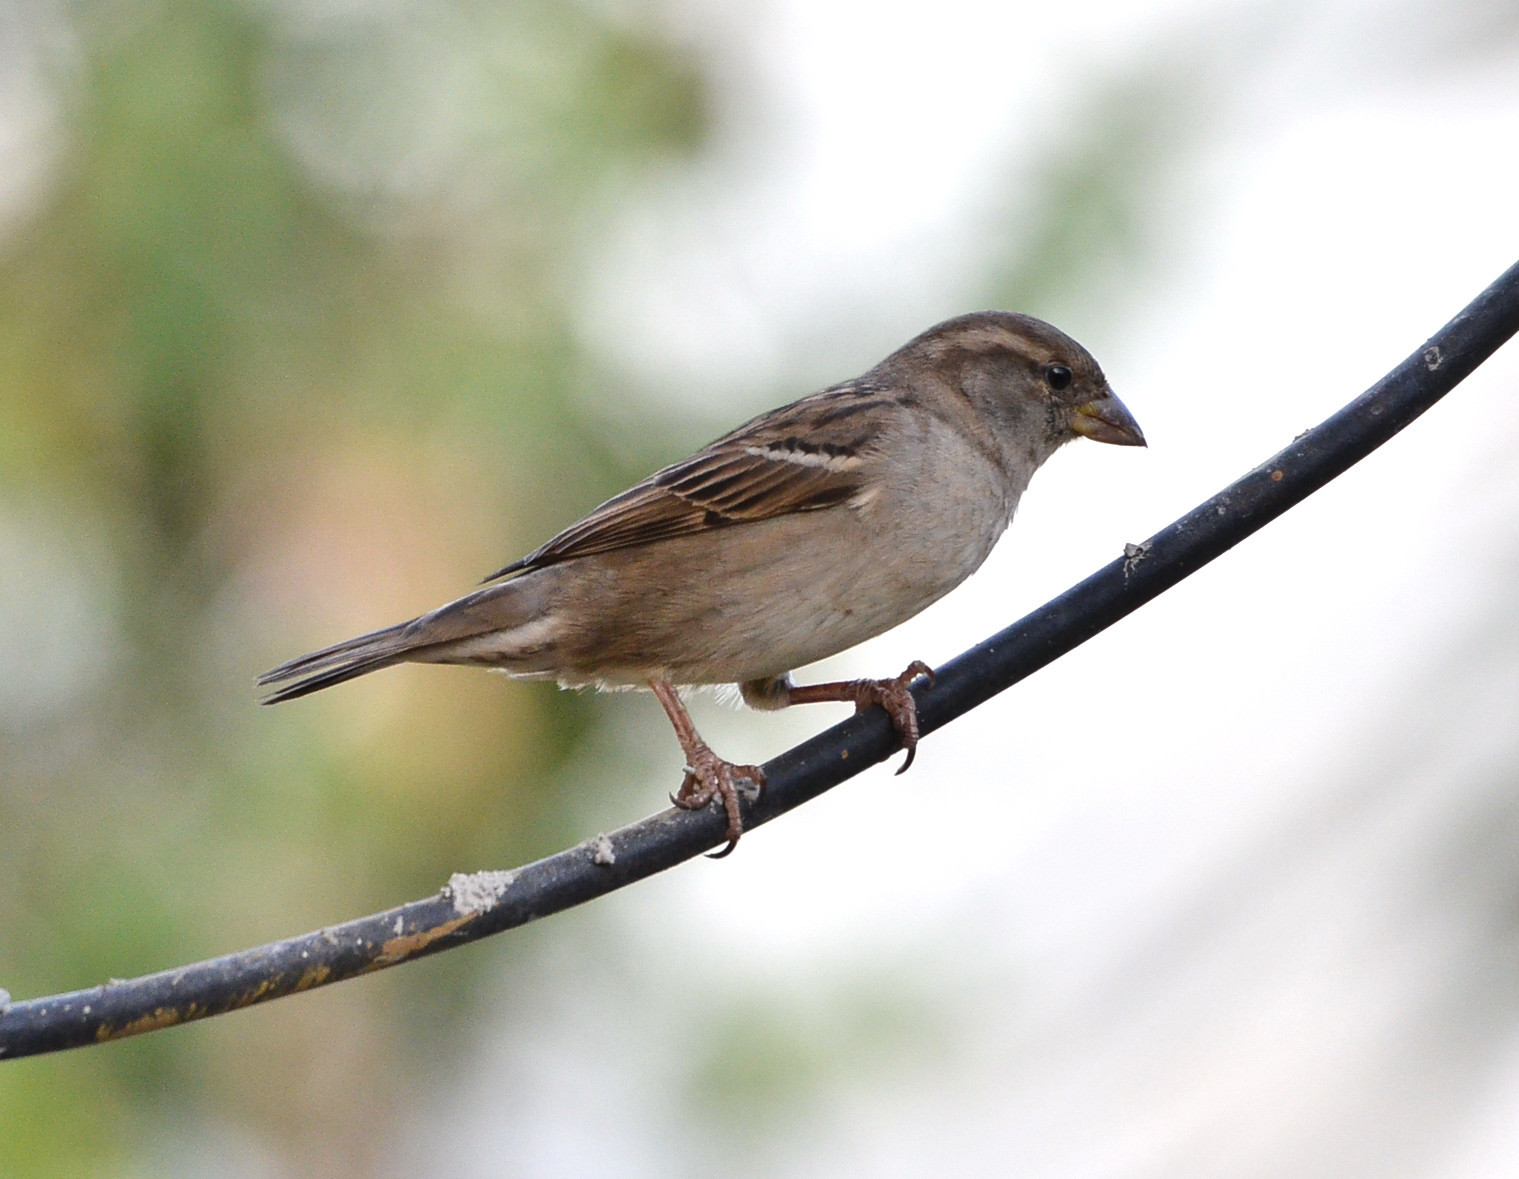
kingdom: Animalia
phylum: Chordata
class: Aves
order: Passeriformes
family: Passeridae
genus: Passer
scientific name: Passer domesticus
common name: House sparrow
